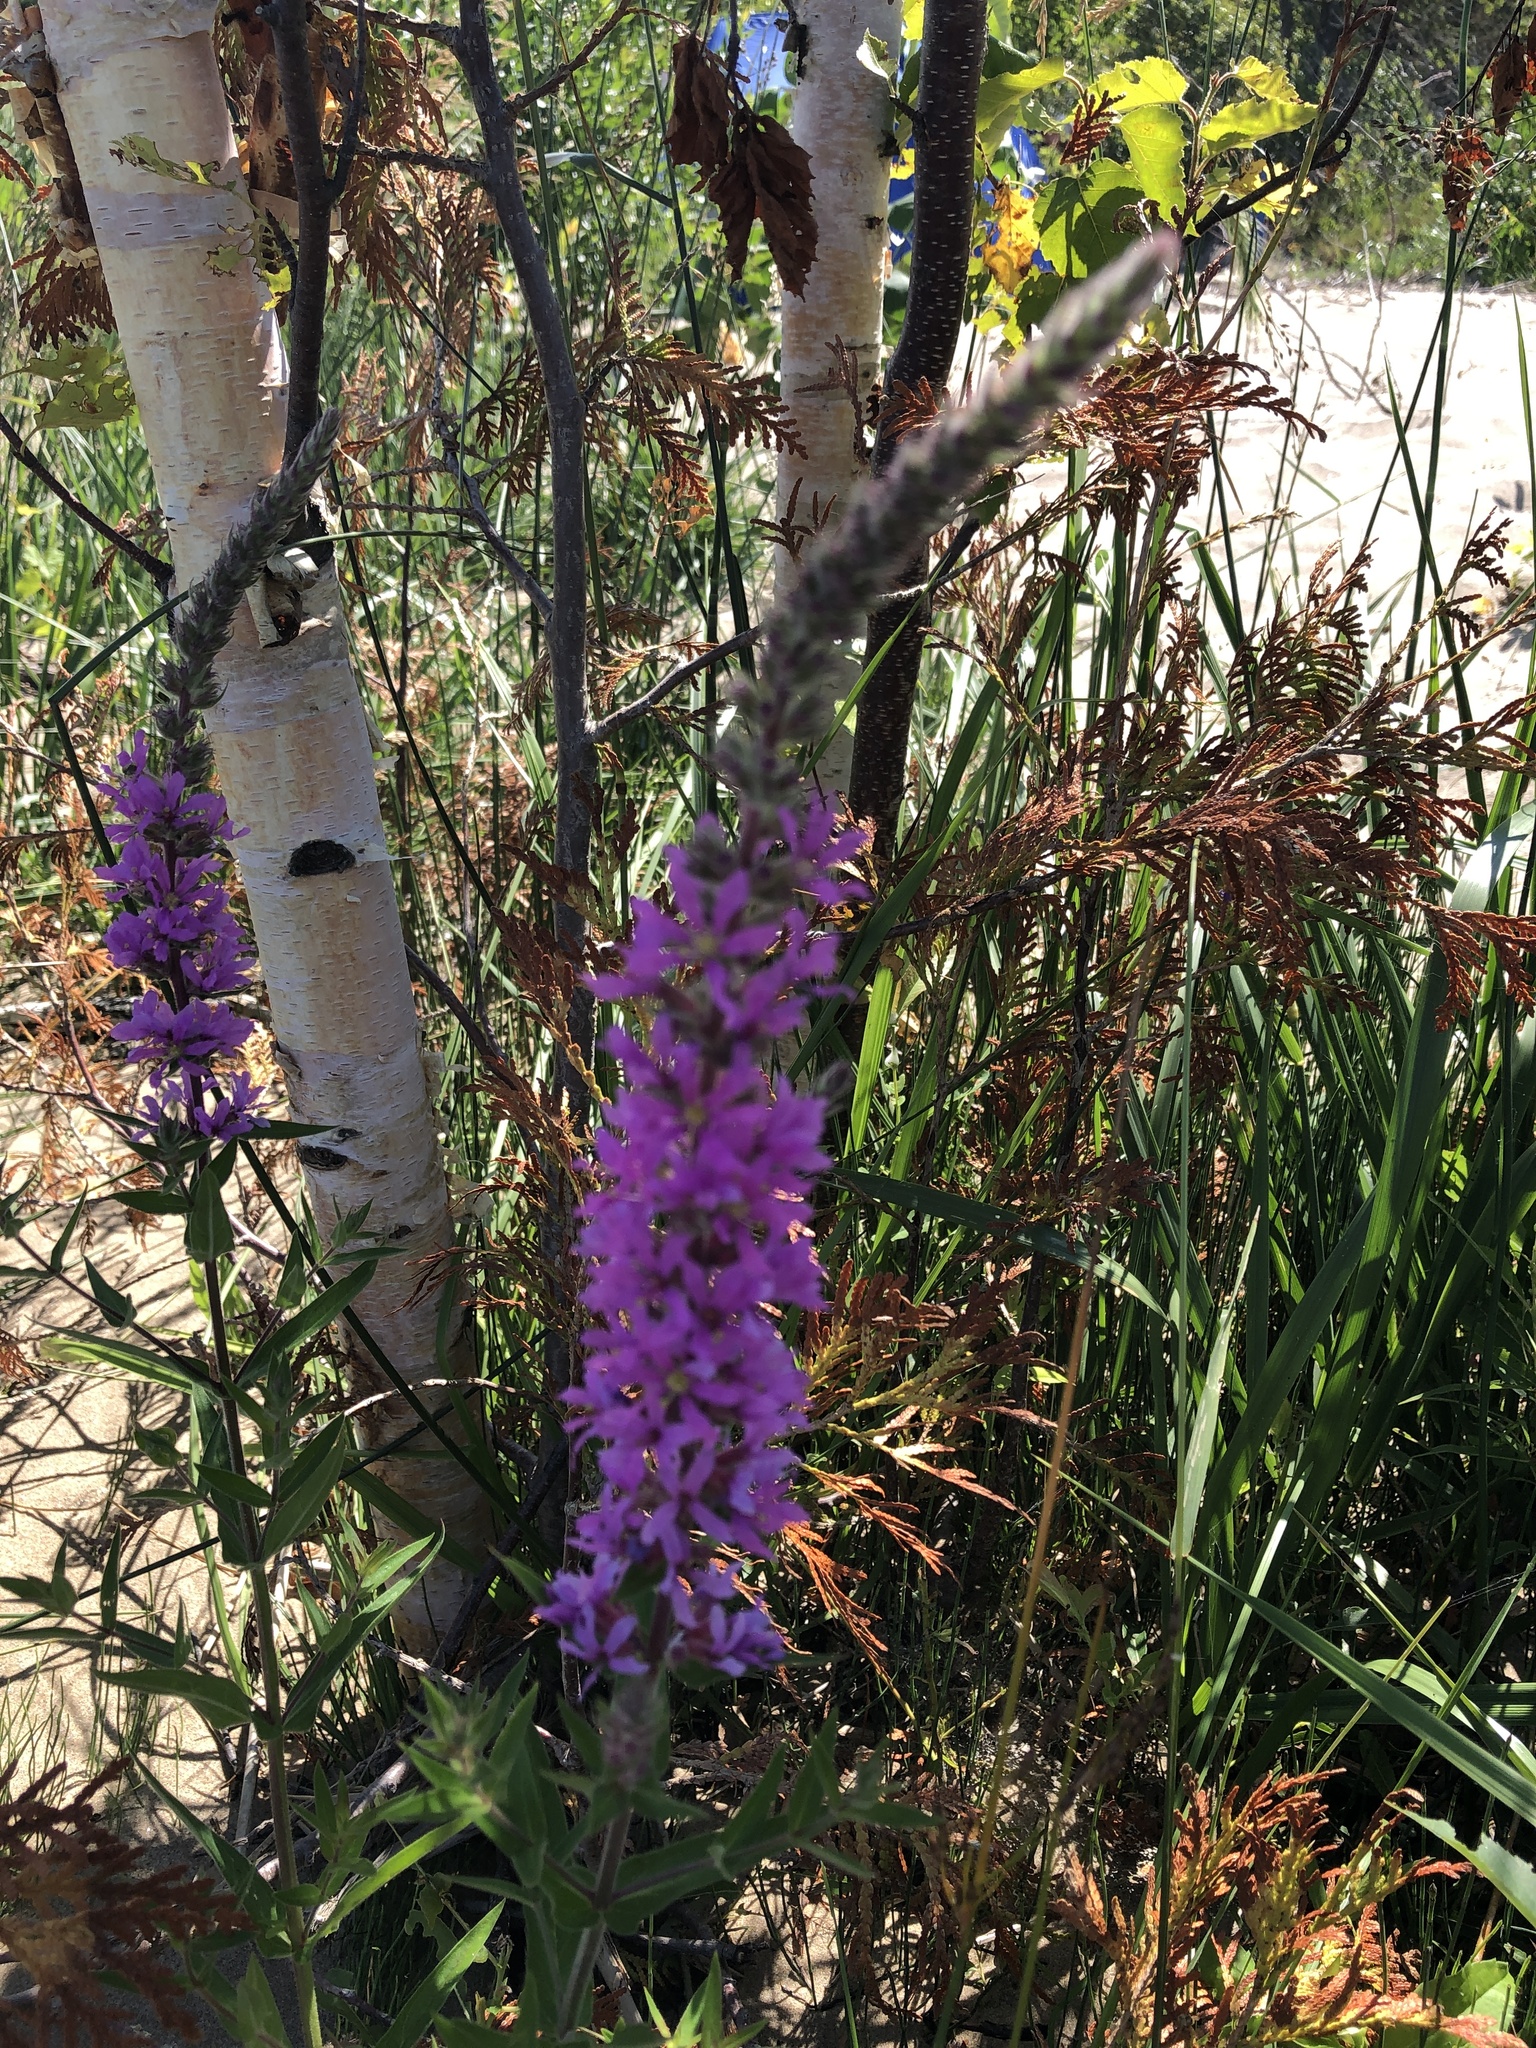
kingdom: Plantae
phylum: Tracheophyta
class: Magnoliopsida
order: Myrtales
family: Lythraceae
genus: Lythrum
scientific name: Lythrum salicaria
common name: Purple loosestrife
